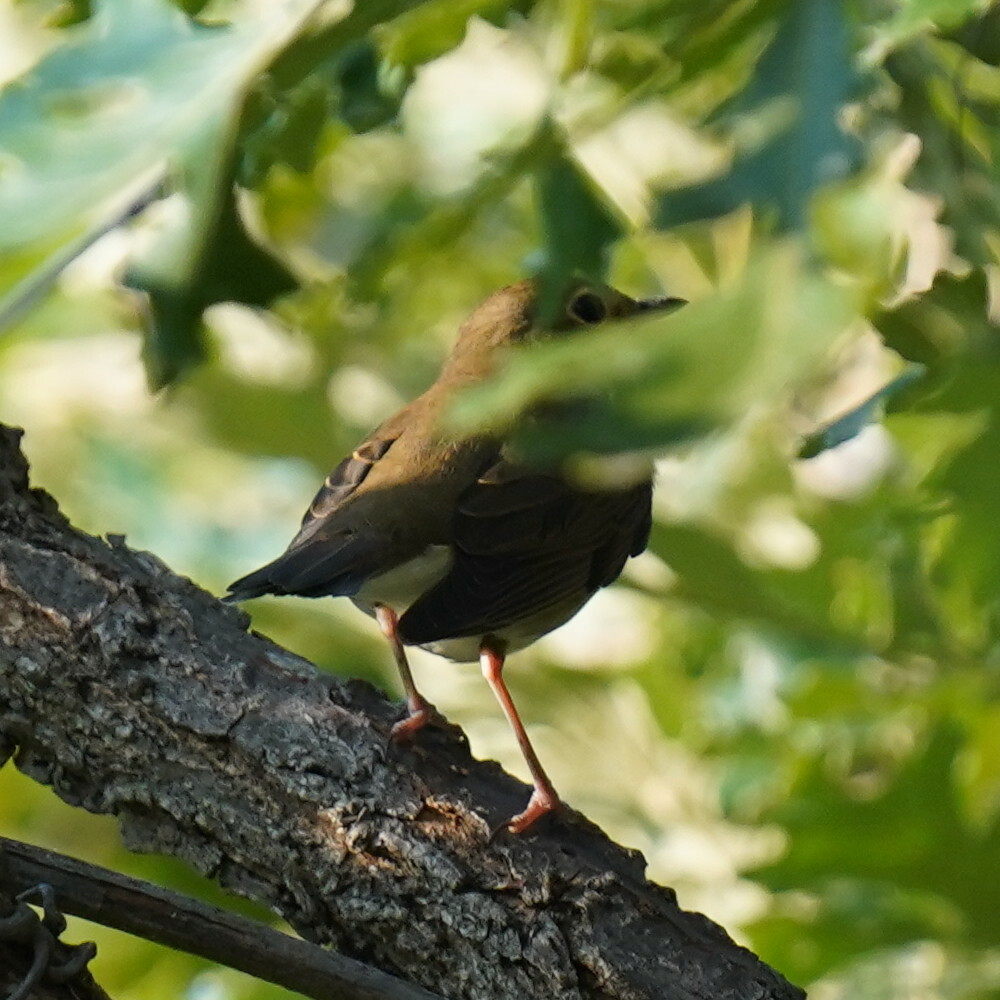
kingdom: Animalia
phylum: Chordata
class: Aves
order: Passeriformes
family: Turdidae
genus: Catharus
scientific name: Catharus ustulatus
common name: Swainson's thrush
